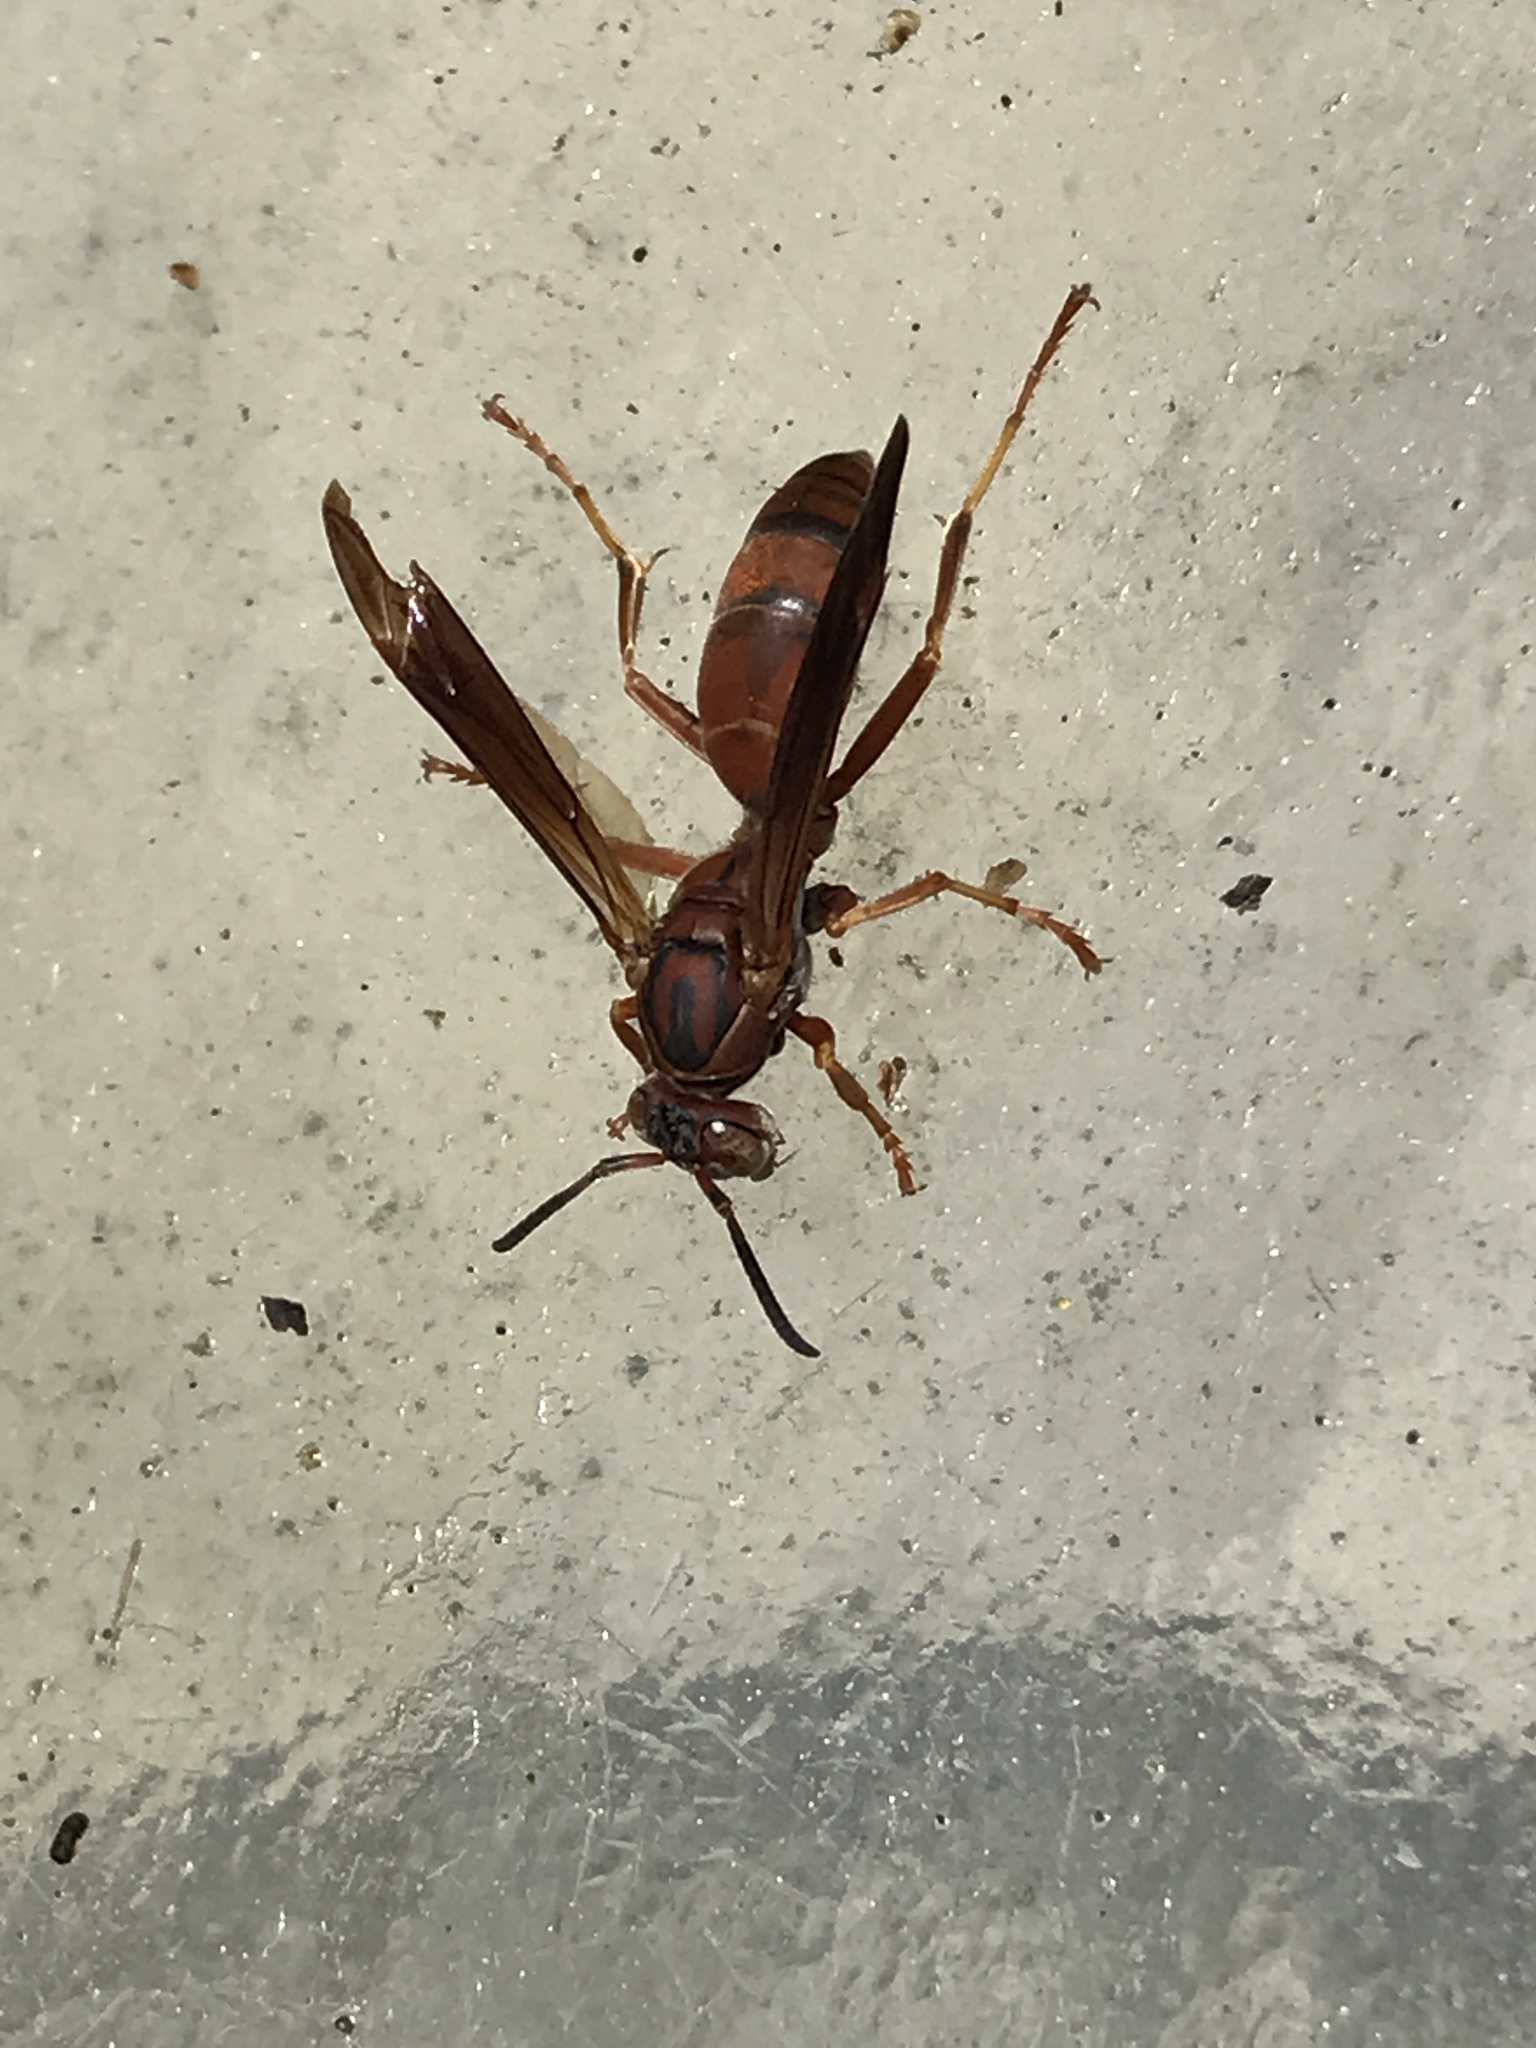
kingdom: Animalia
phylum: Arthropoda
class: Insecta
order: Hymenoptera
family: Eumenidae
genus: Polistes
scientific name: Polistes carolina
